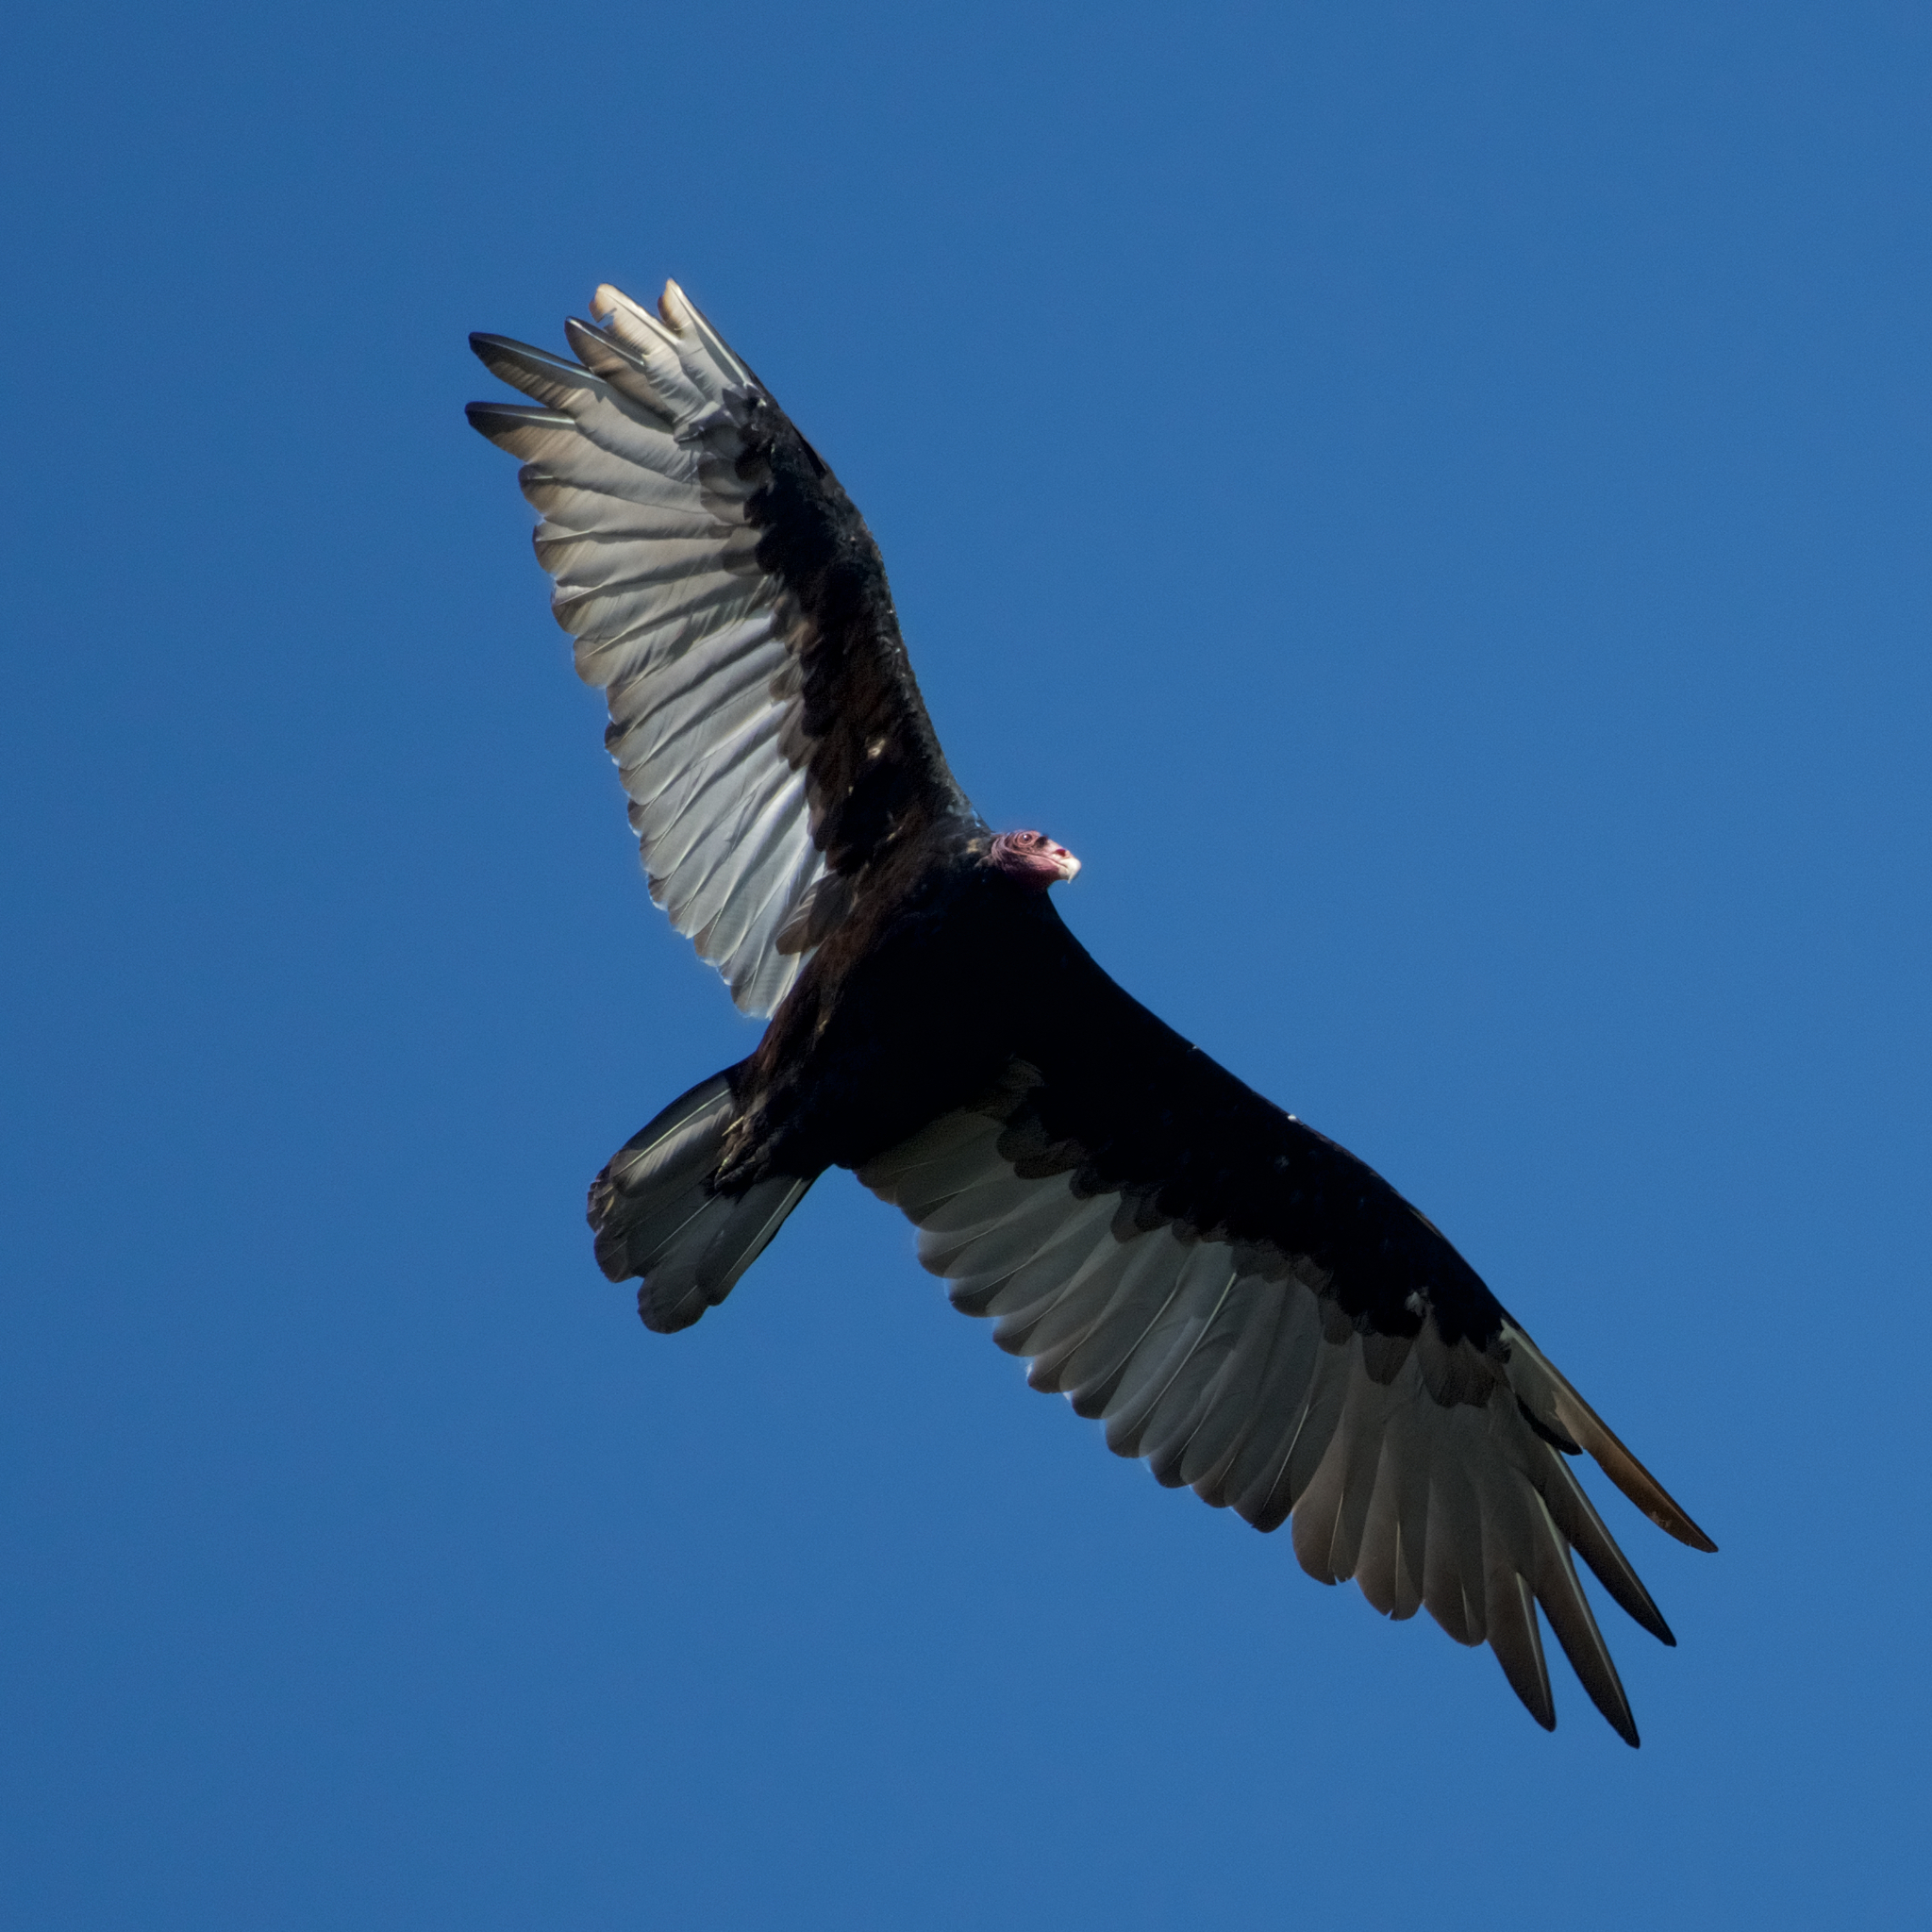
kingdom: Animalia
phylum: Chordata
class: Aves
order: Accipitriformes
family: Cathartidae
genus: Cathartes
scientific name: Cathartes aura
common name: Turkey vulture
